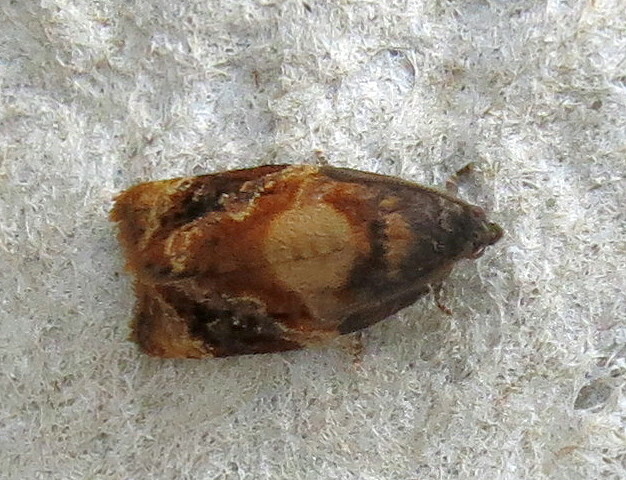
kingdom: Animalia
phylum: Arthropoda
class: Insecta
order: Lepidoptera
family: Tortricidae
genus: Ditula
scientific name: Ditula angustiorana
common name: Red-barred tortrix
